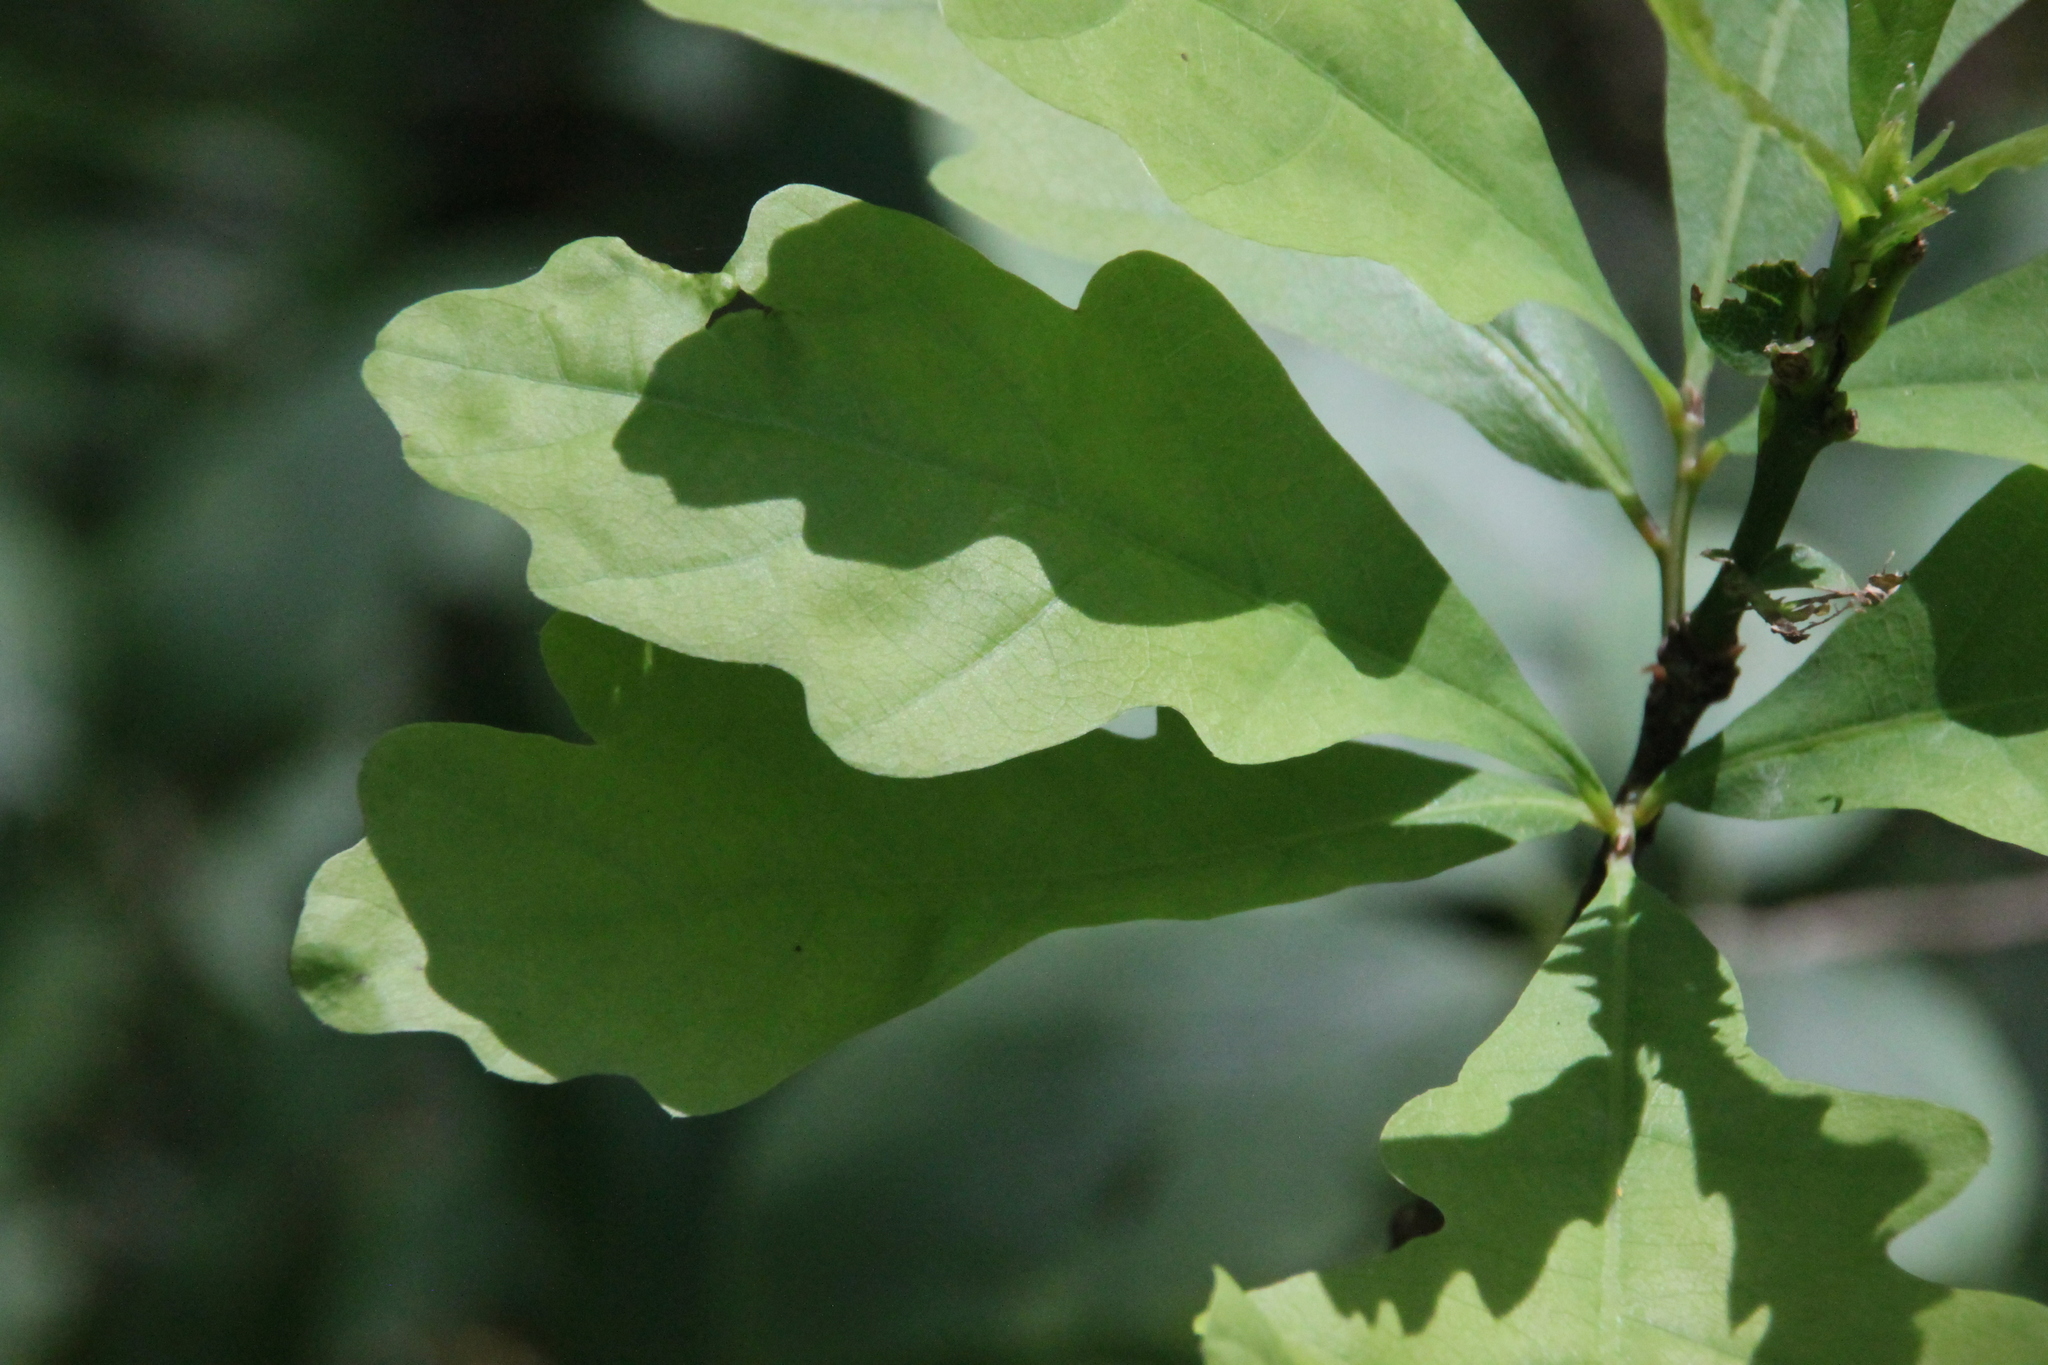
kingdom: Plantae
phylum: Tracheophyta
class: Magnoliopsida
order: Fagales
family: Fagaceae
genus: Quercus
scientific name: Quercus robur
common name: Pedunculate oak
